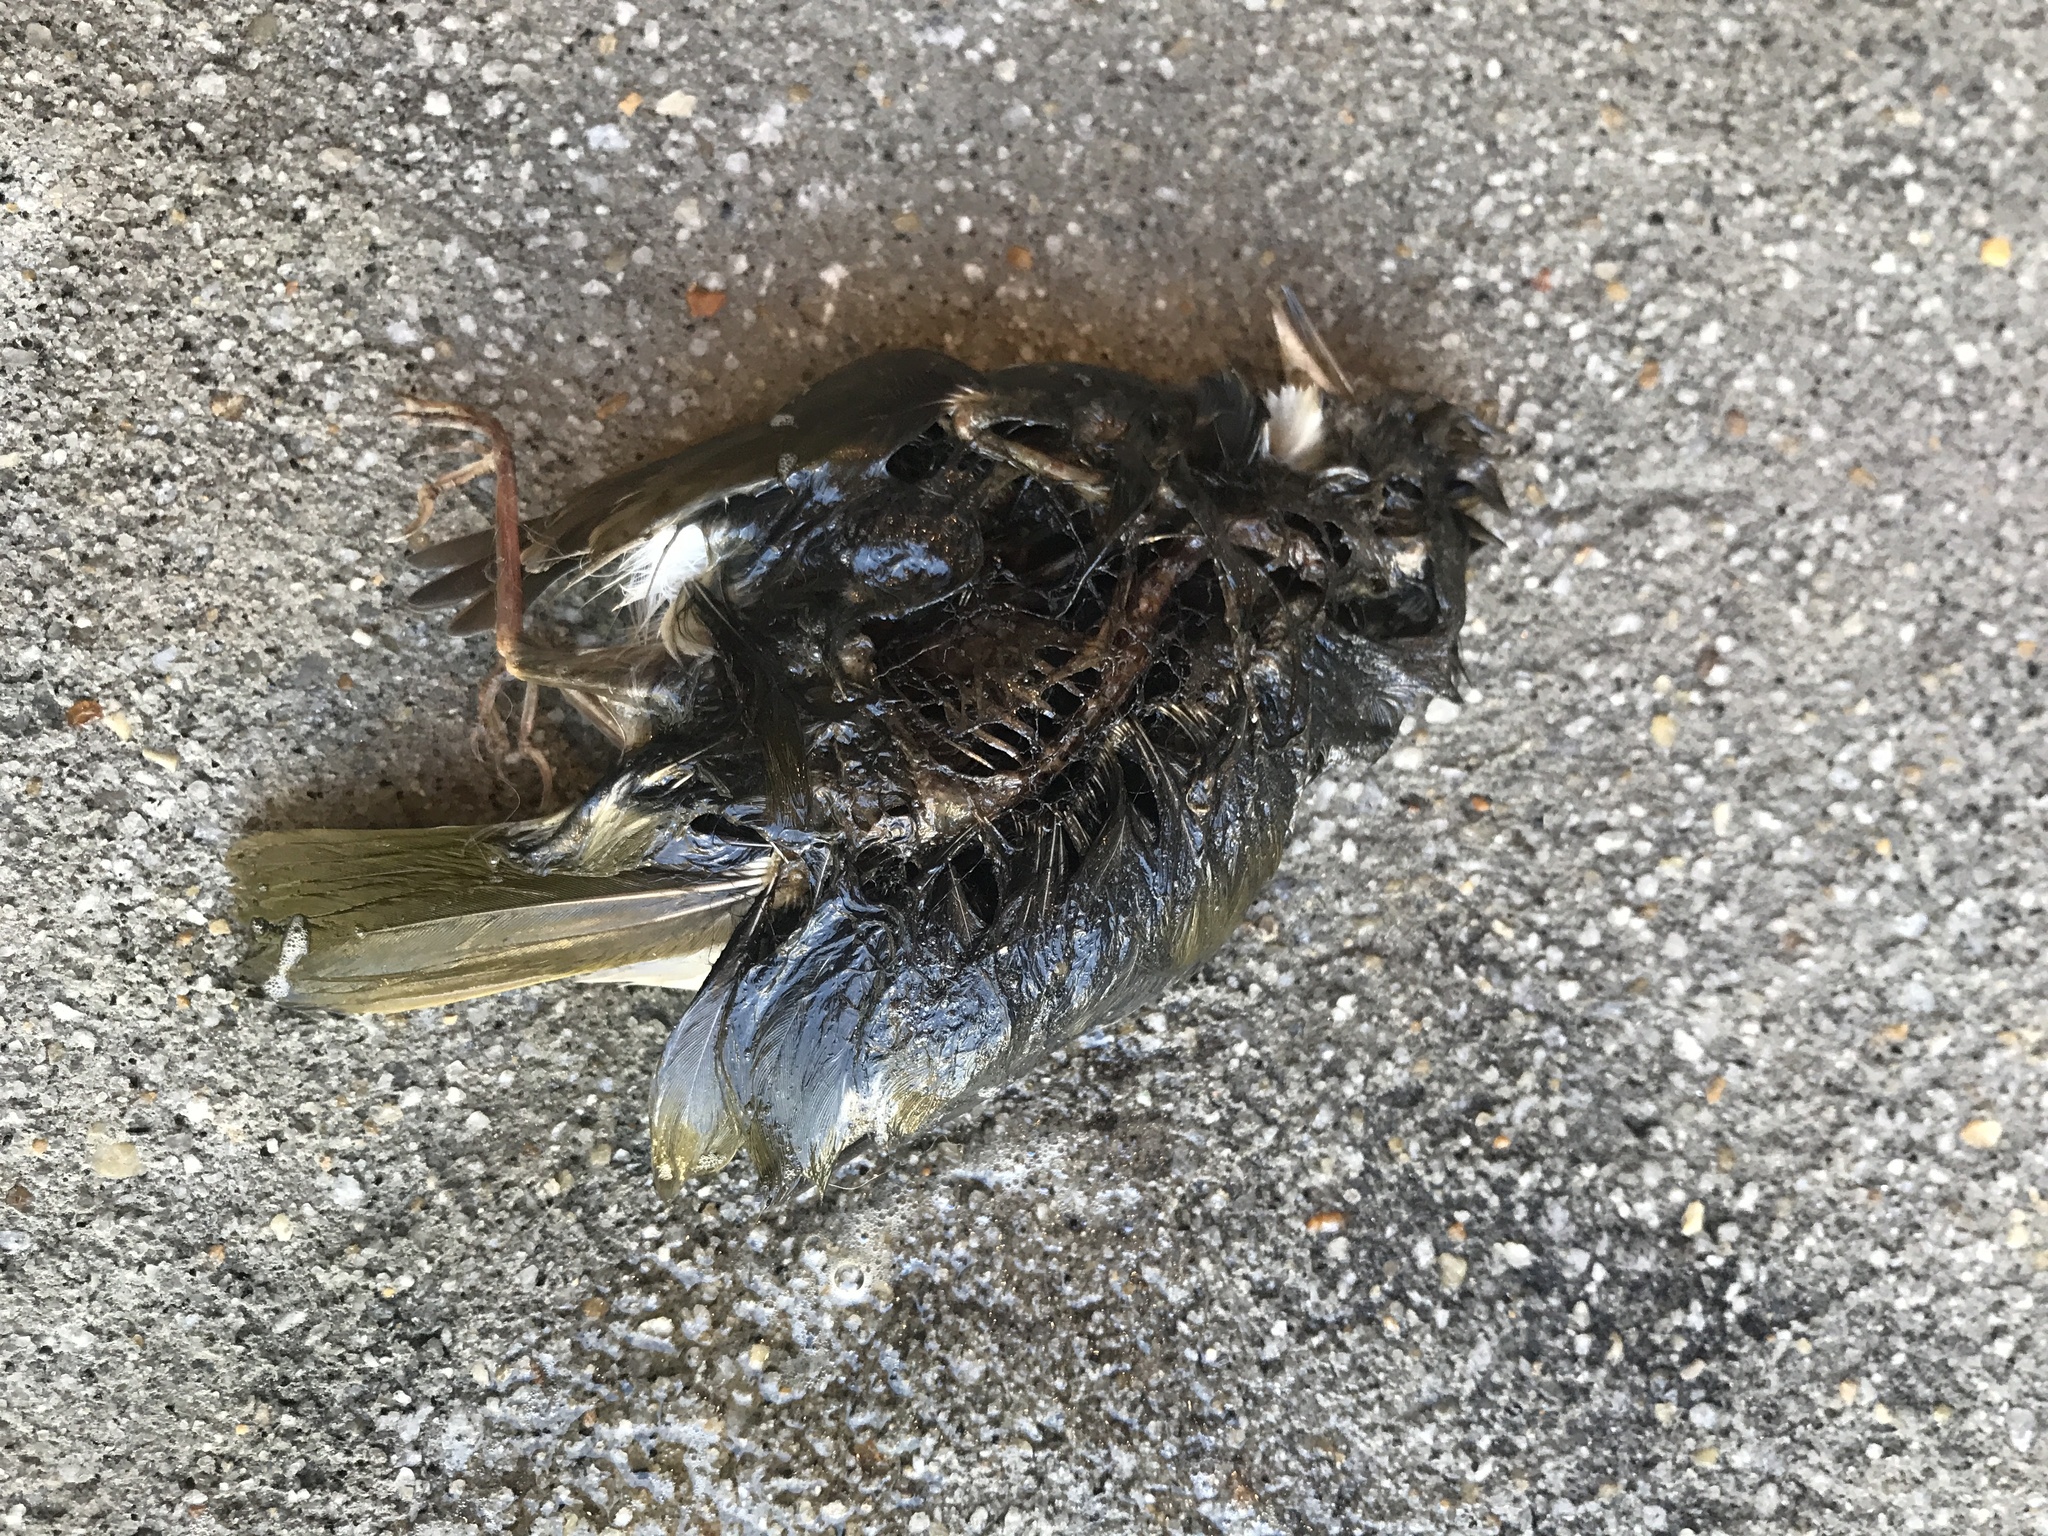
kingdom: Animalia
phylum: Chordata
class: Aves
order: Passeriformes
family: Parulidae
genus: Seiurus
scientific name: Seiurus aurocapilla
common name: Ovenbird
